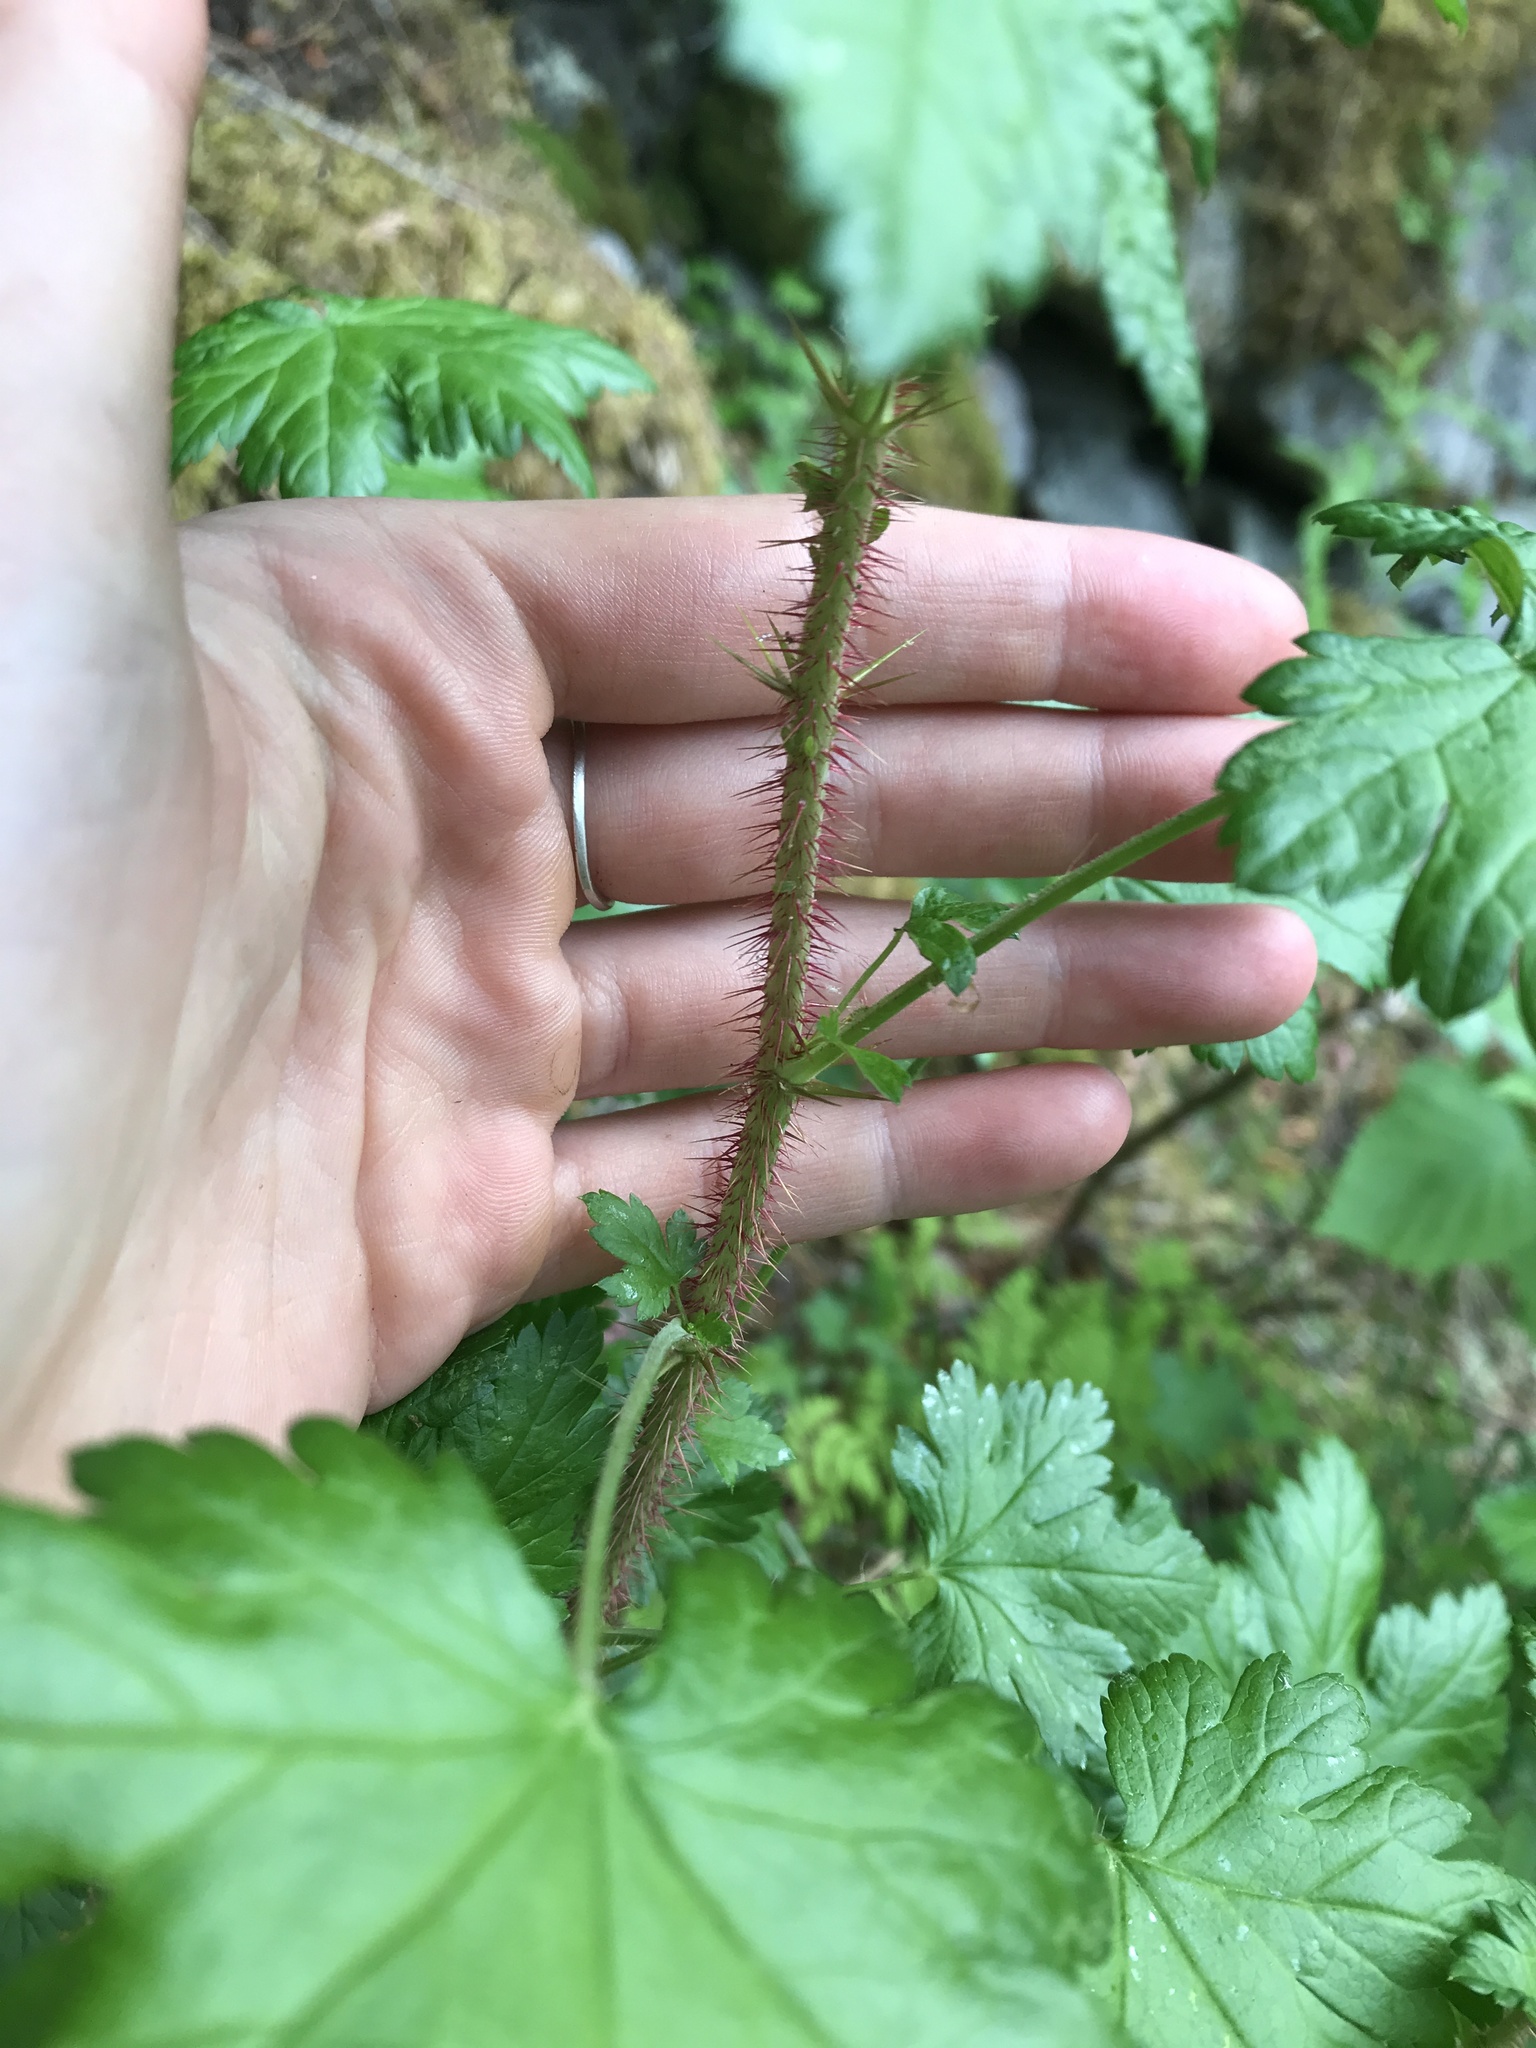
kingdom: Plantae
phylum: Tracheophyta
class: Magnoliopsida
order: Saxifragales
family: Grossulariaceae
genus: Ribes
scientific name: Ribes lacustre
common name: Black gooseberry
